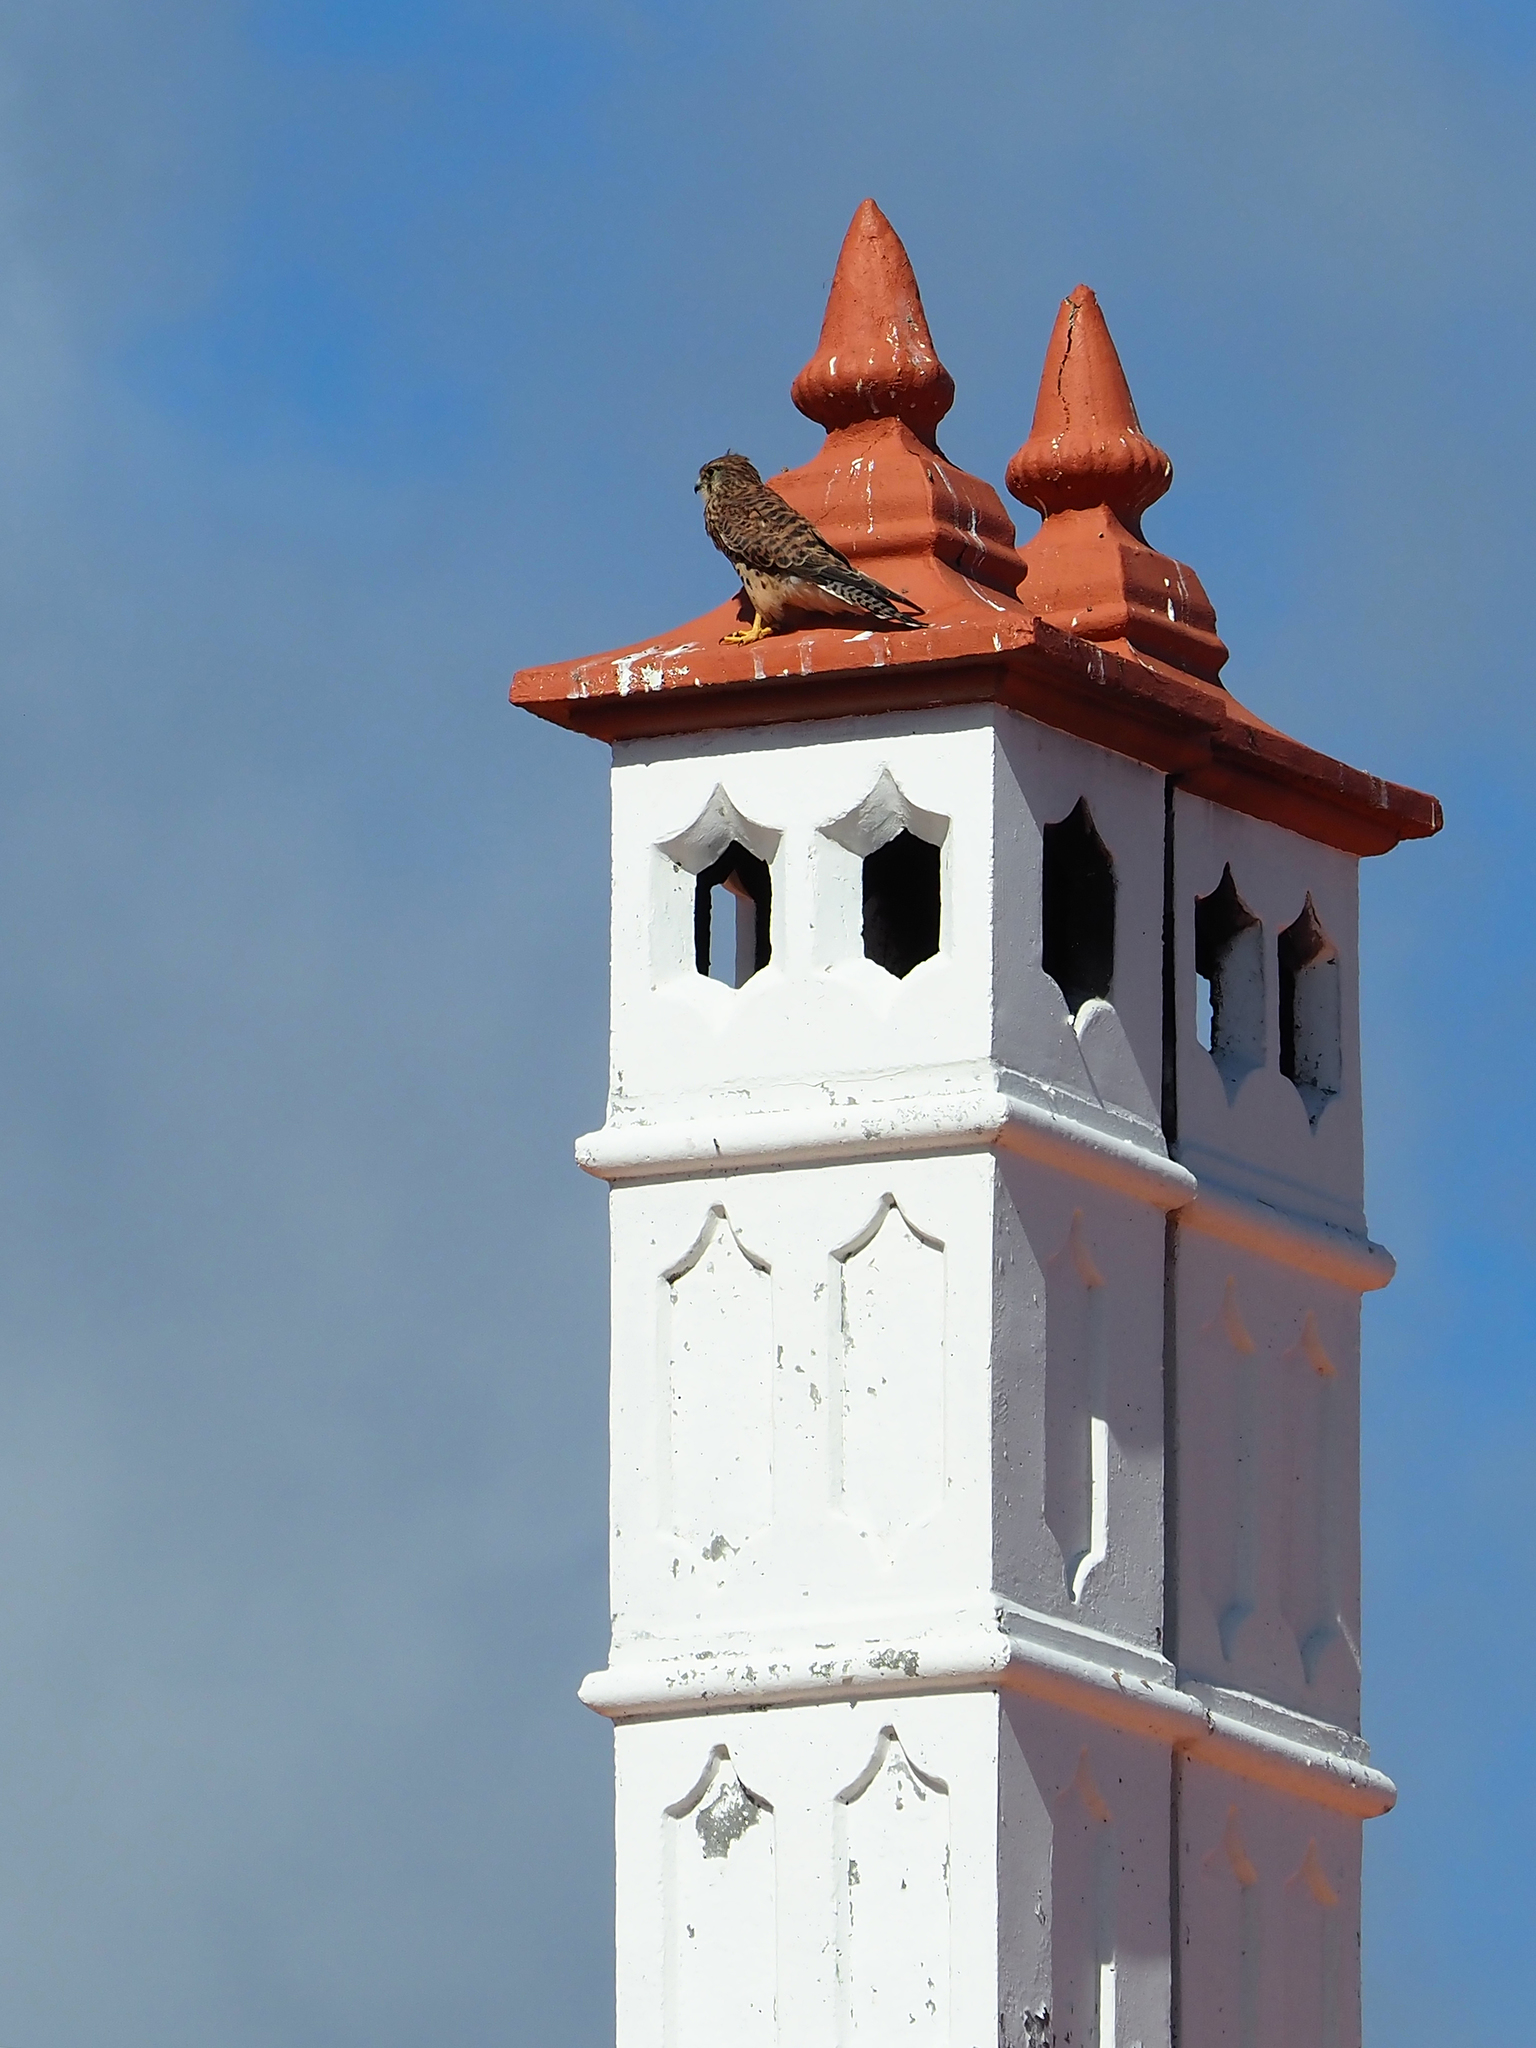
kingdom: Animalia
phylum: Chordata
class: Aves
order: Falconiformes
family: Falconidae
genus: Falco
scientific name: Falco tinnunculus
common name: Common kestrel
